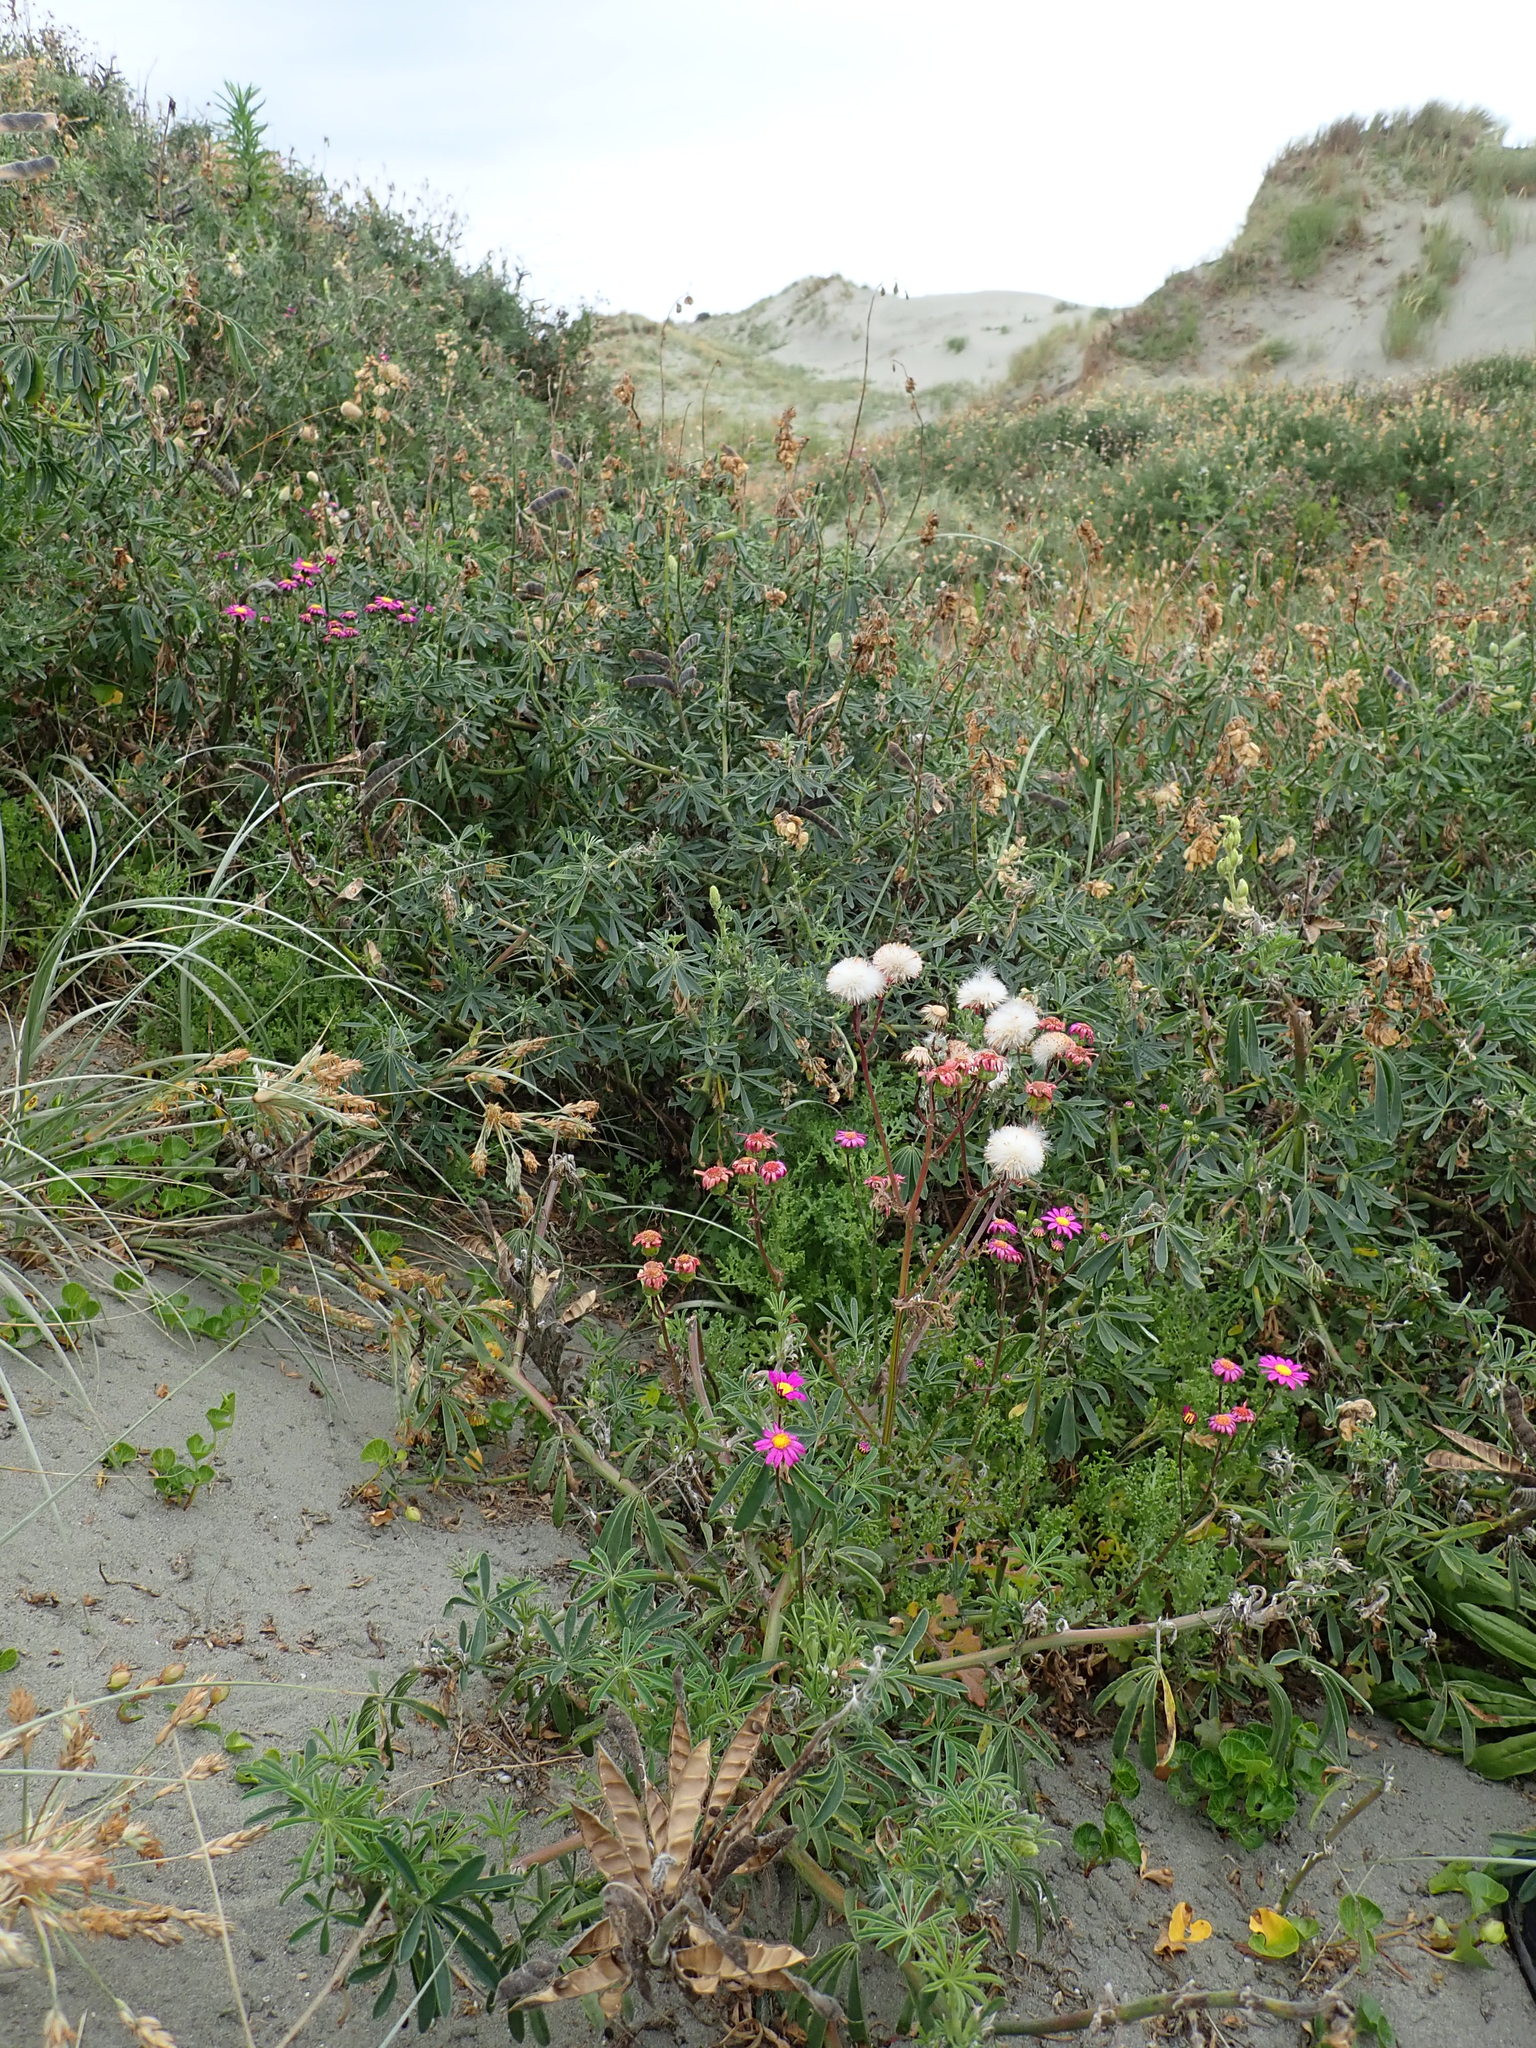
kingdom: Plantae
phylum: Tracheophyta
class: Magnoliopsida
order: Asterales
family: Asteraceae
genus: Senecio
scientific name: Senecio elegans
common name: Purple groundsel
